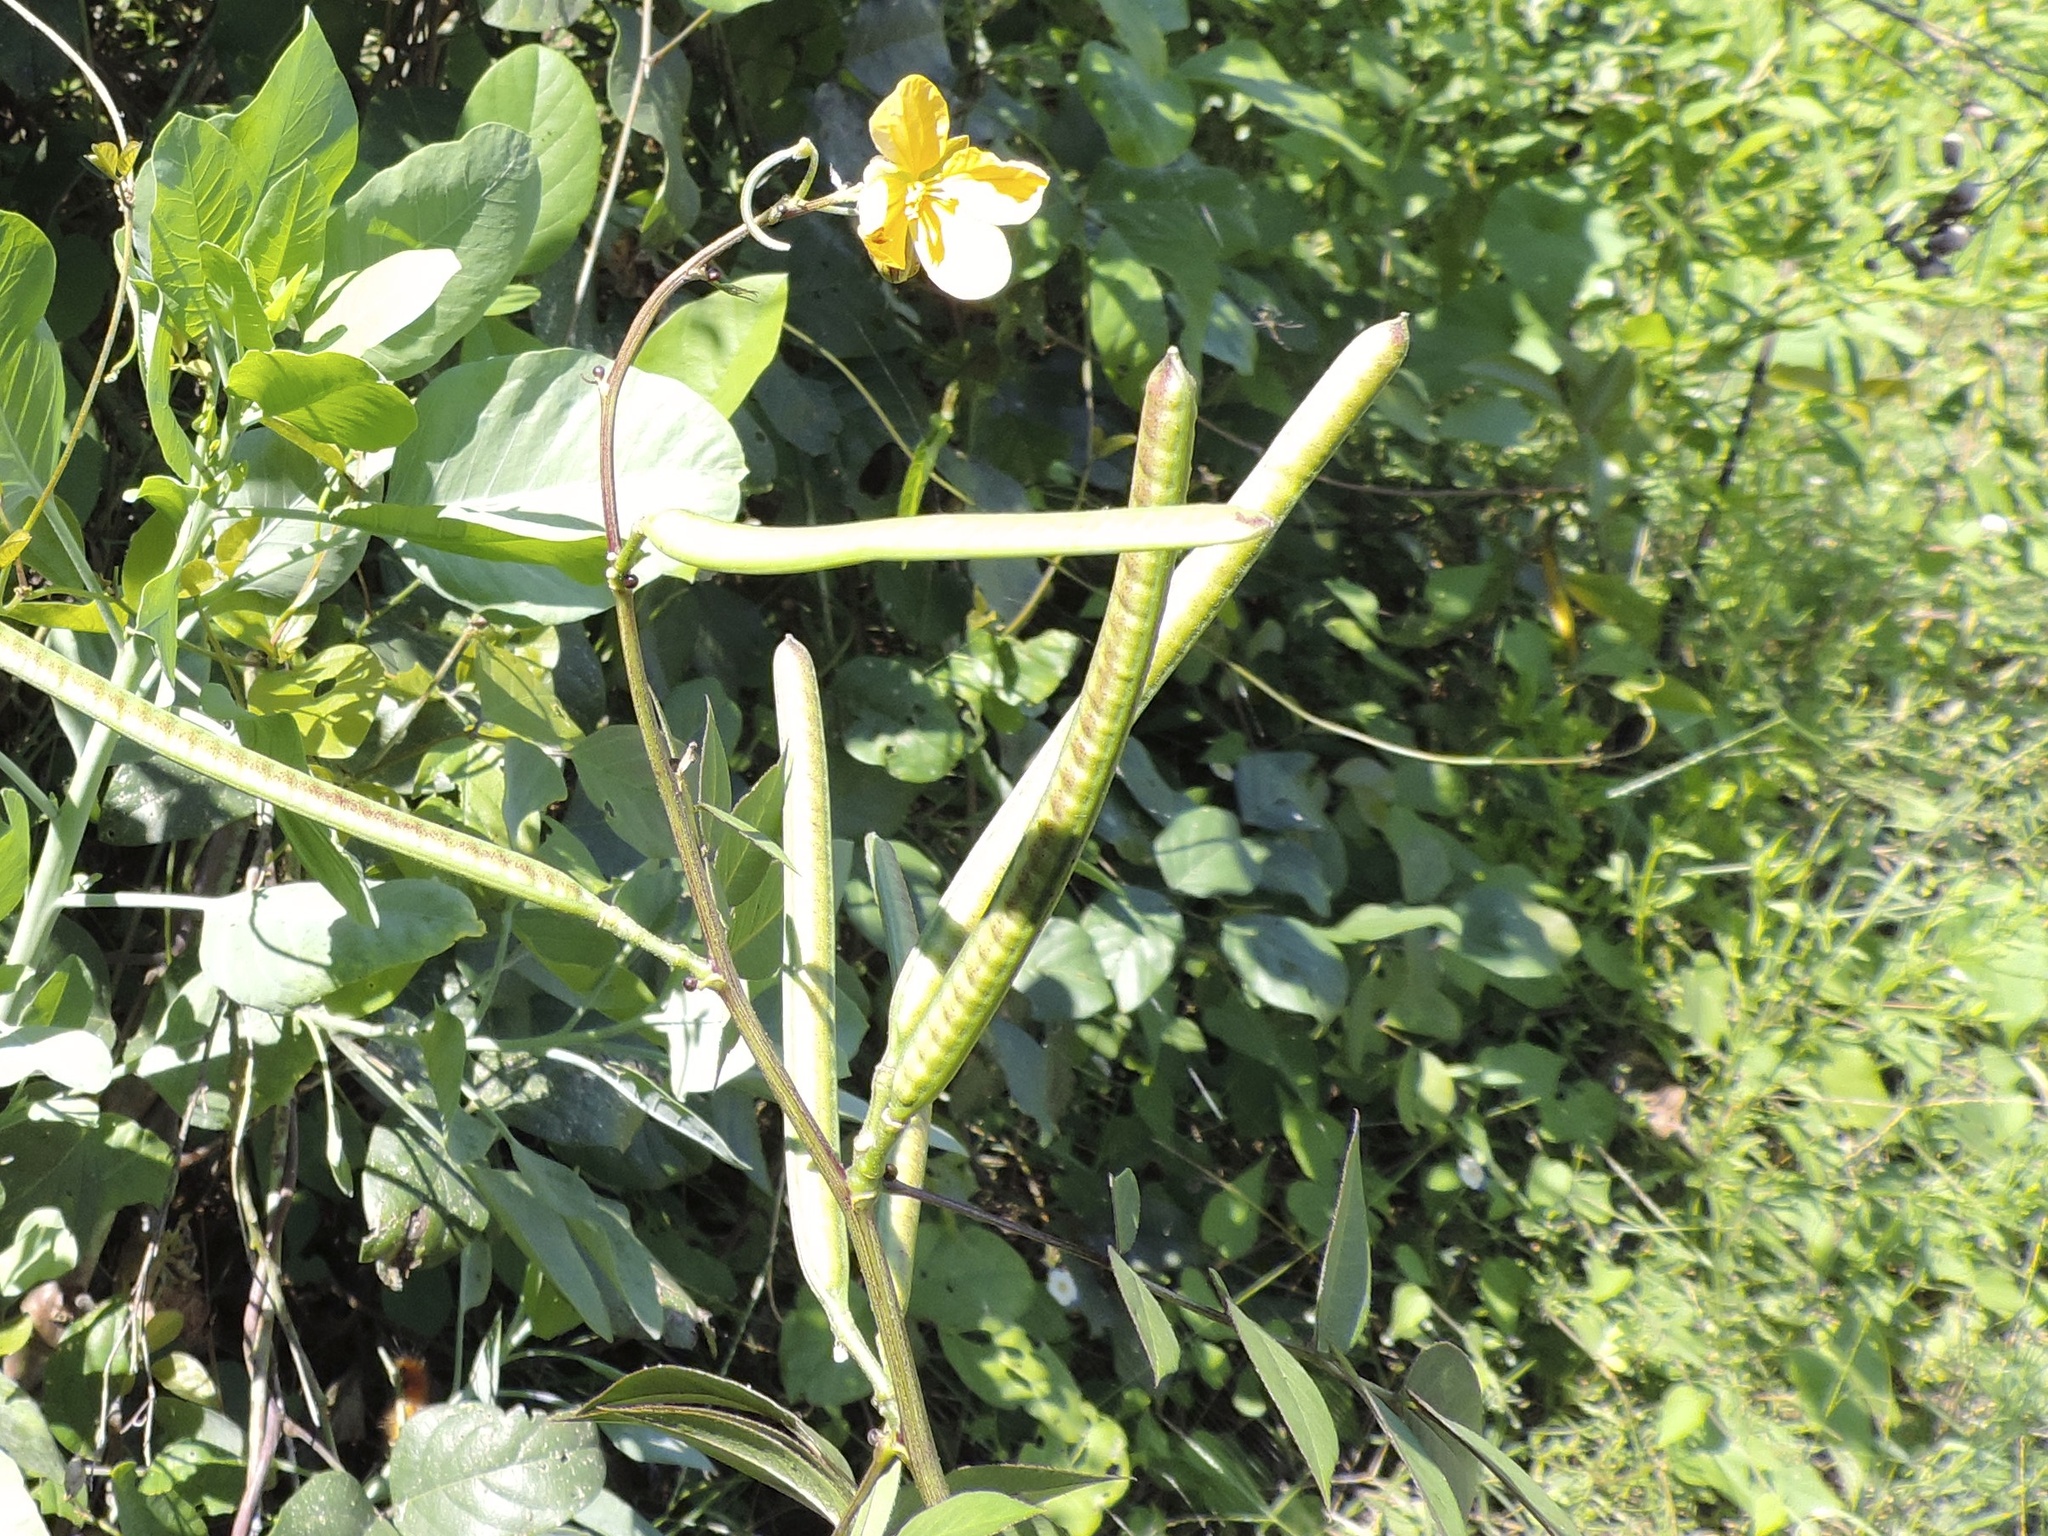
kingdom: Plantae
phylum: Tracheophyta
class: Magnoliopsida
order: Fabales
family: Fabaceae
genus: Senna
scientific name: Senna occidentalis
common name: Septicweed
